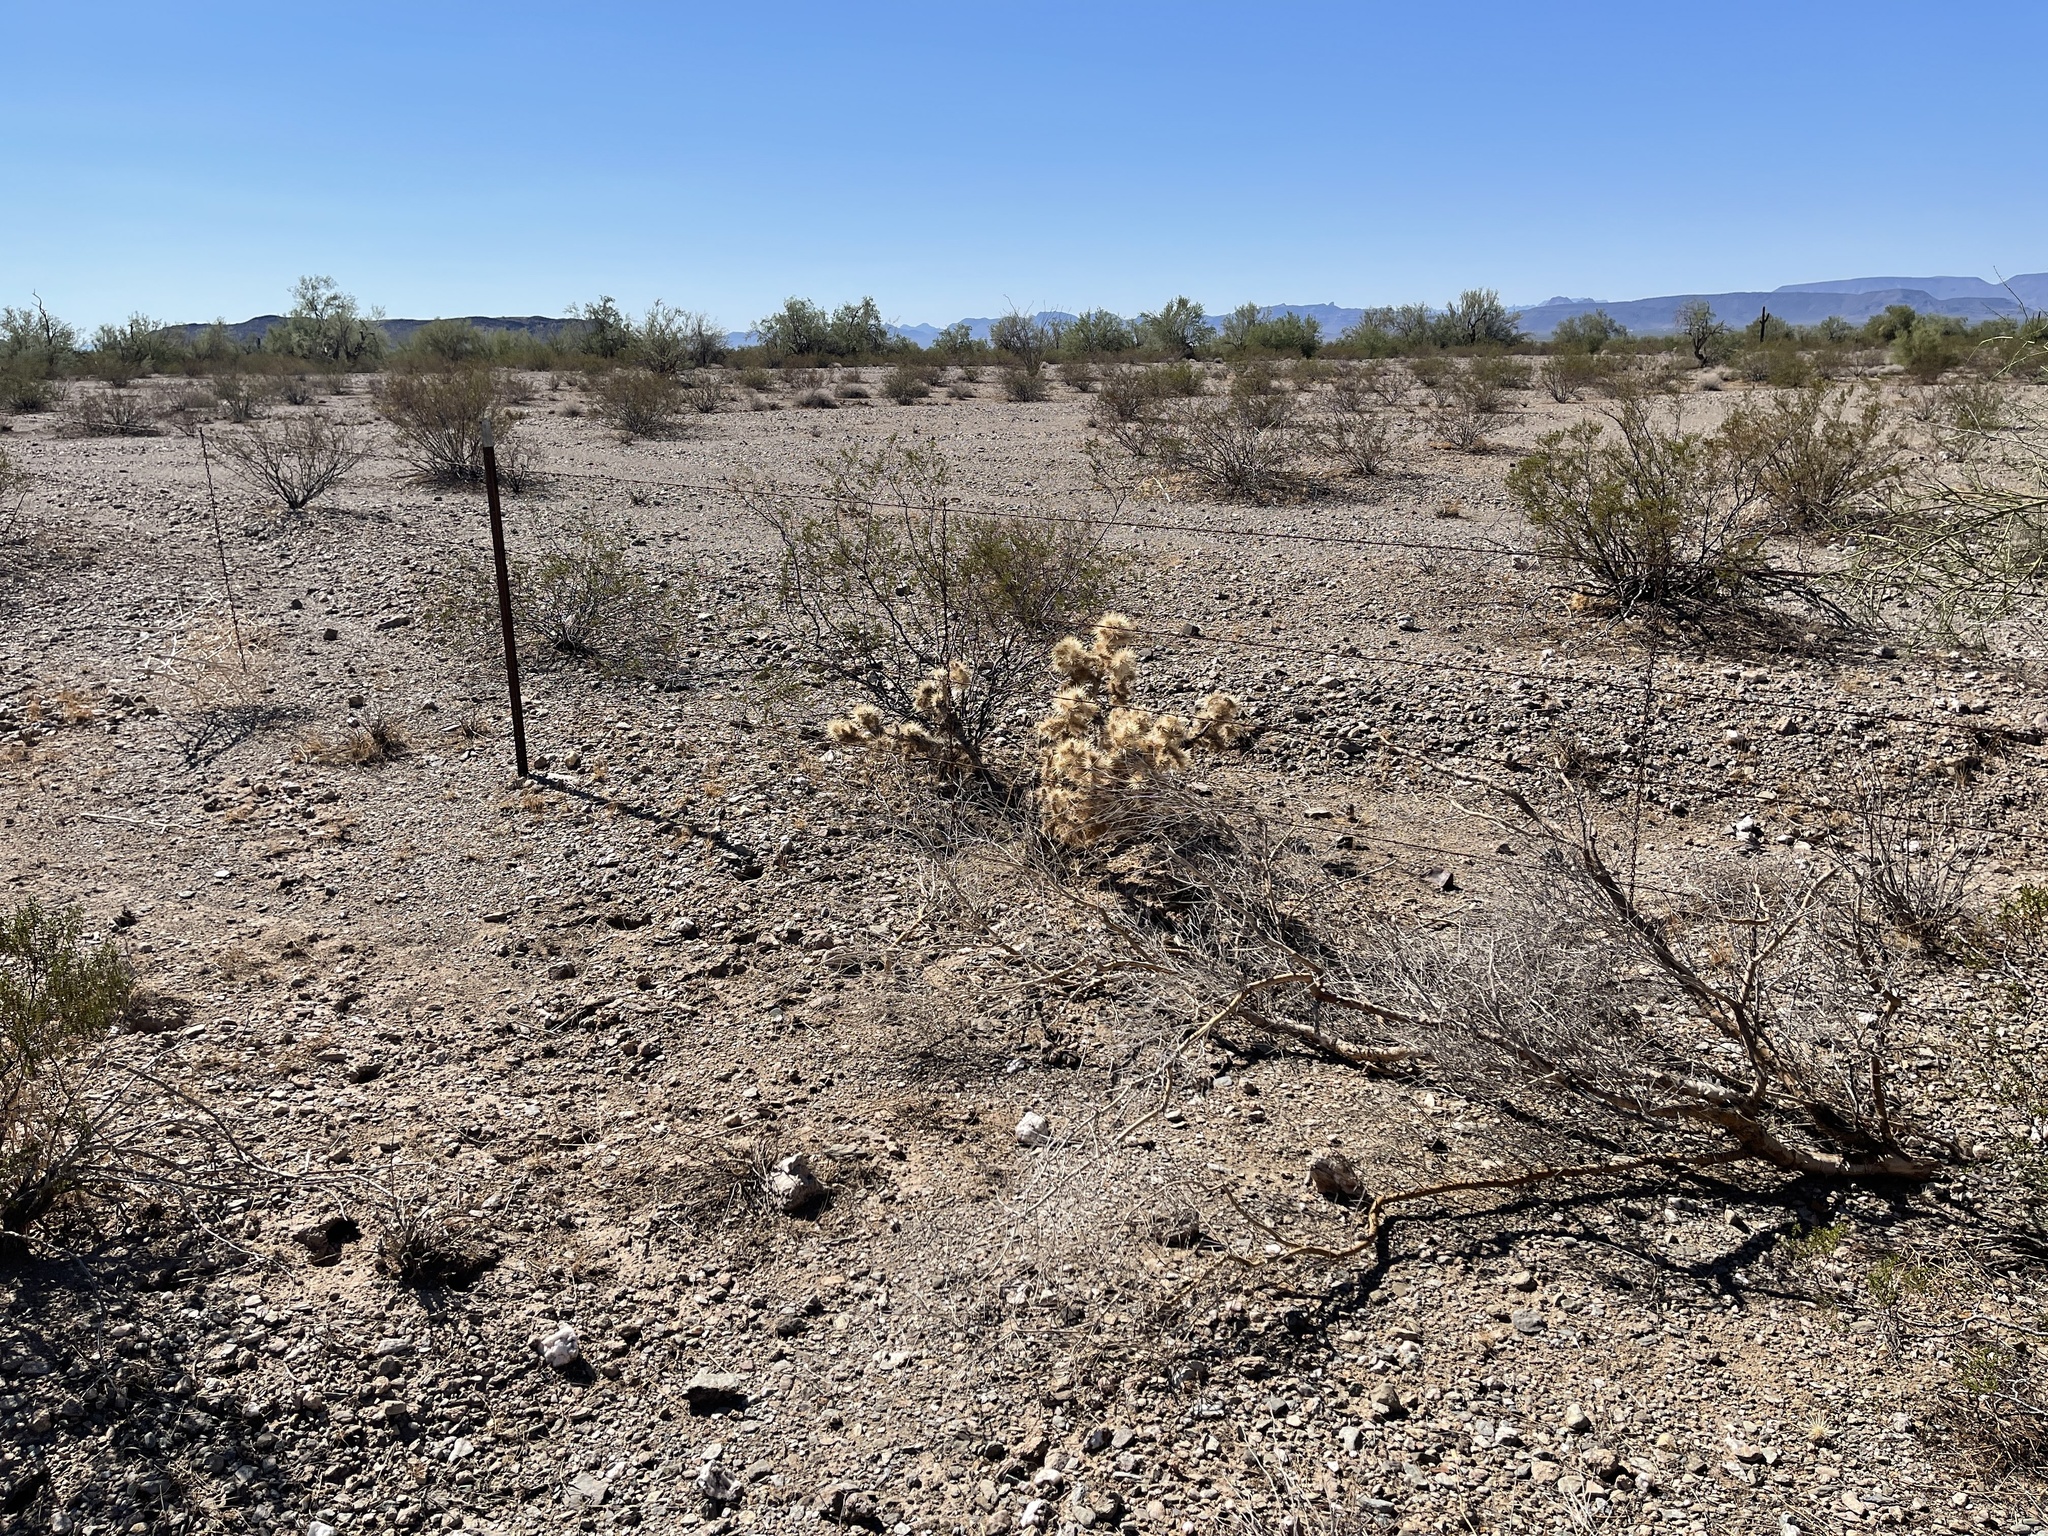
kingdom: Plantae
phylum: Tracheophyta
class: Magnoliopsida
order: Caryophyllales
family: Cactaceae
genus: Cylindropuntia
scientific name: Cylindropuntia echinocarpa
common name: Ground cholla
